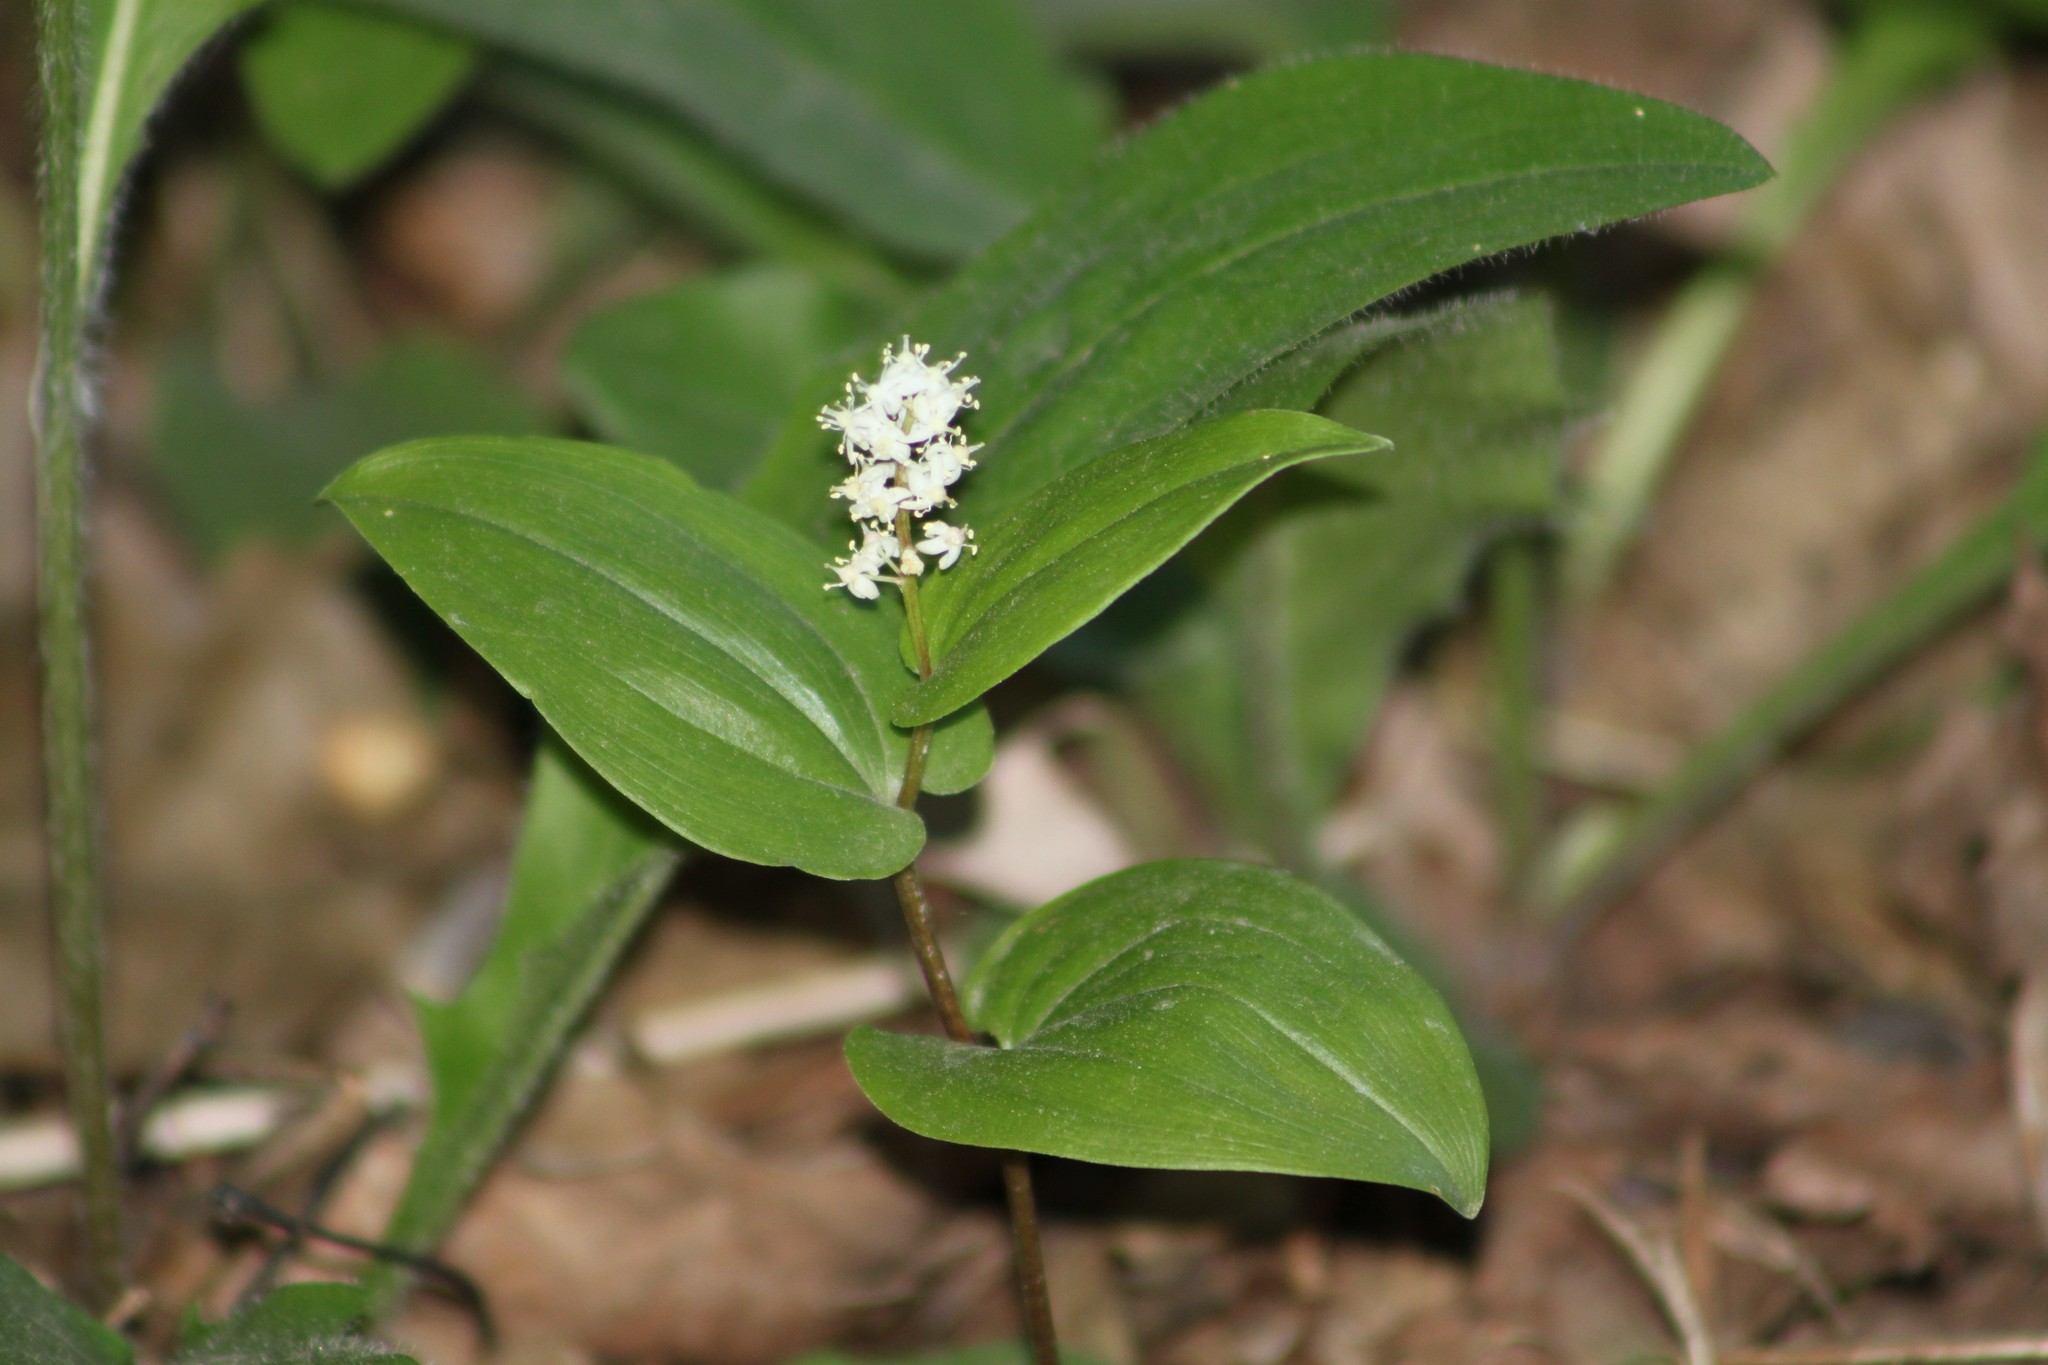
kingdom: Plantae
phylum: Tracheophyta
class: Liliopsida
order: Asparagales
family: Asparagaceae
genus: Maianthemum
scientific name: Maianthemum canadense
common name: False lily-of-the-valley
